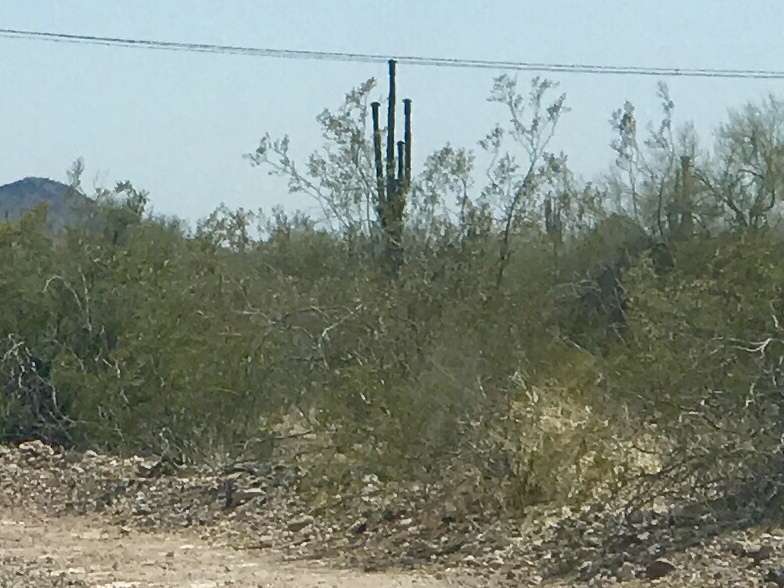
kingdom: Plantae
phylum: Tracheophyta
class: Magnoliopsida
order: Zygophyllales
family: Zygophyllaceae
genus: Larrea
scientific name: Larrea tridentata
